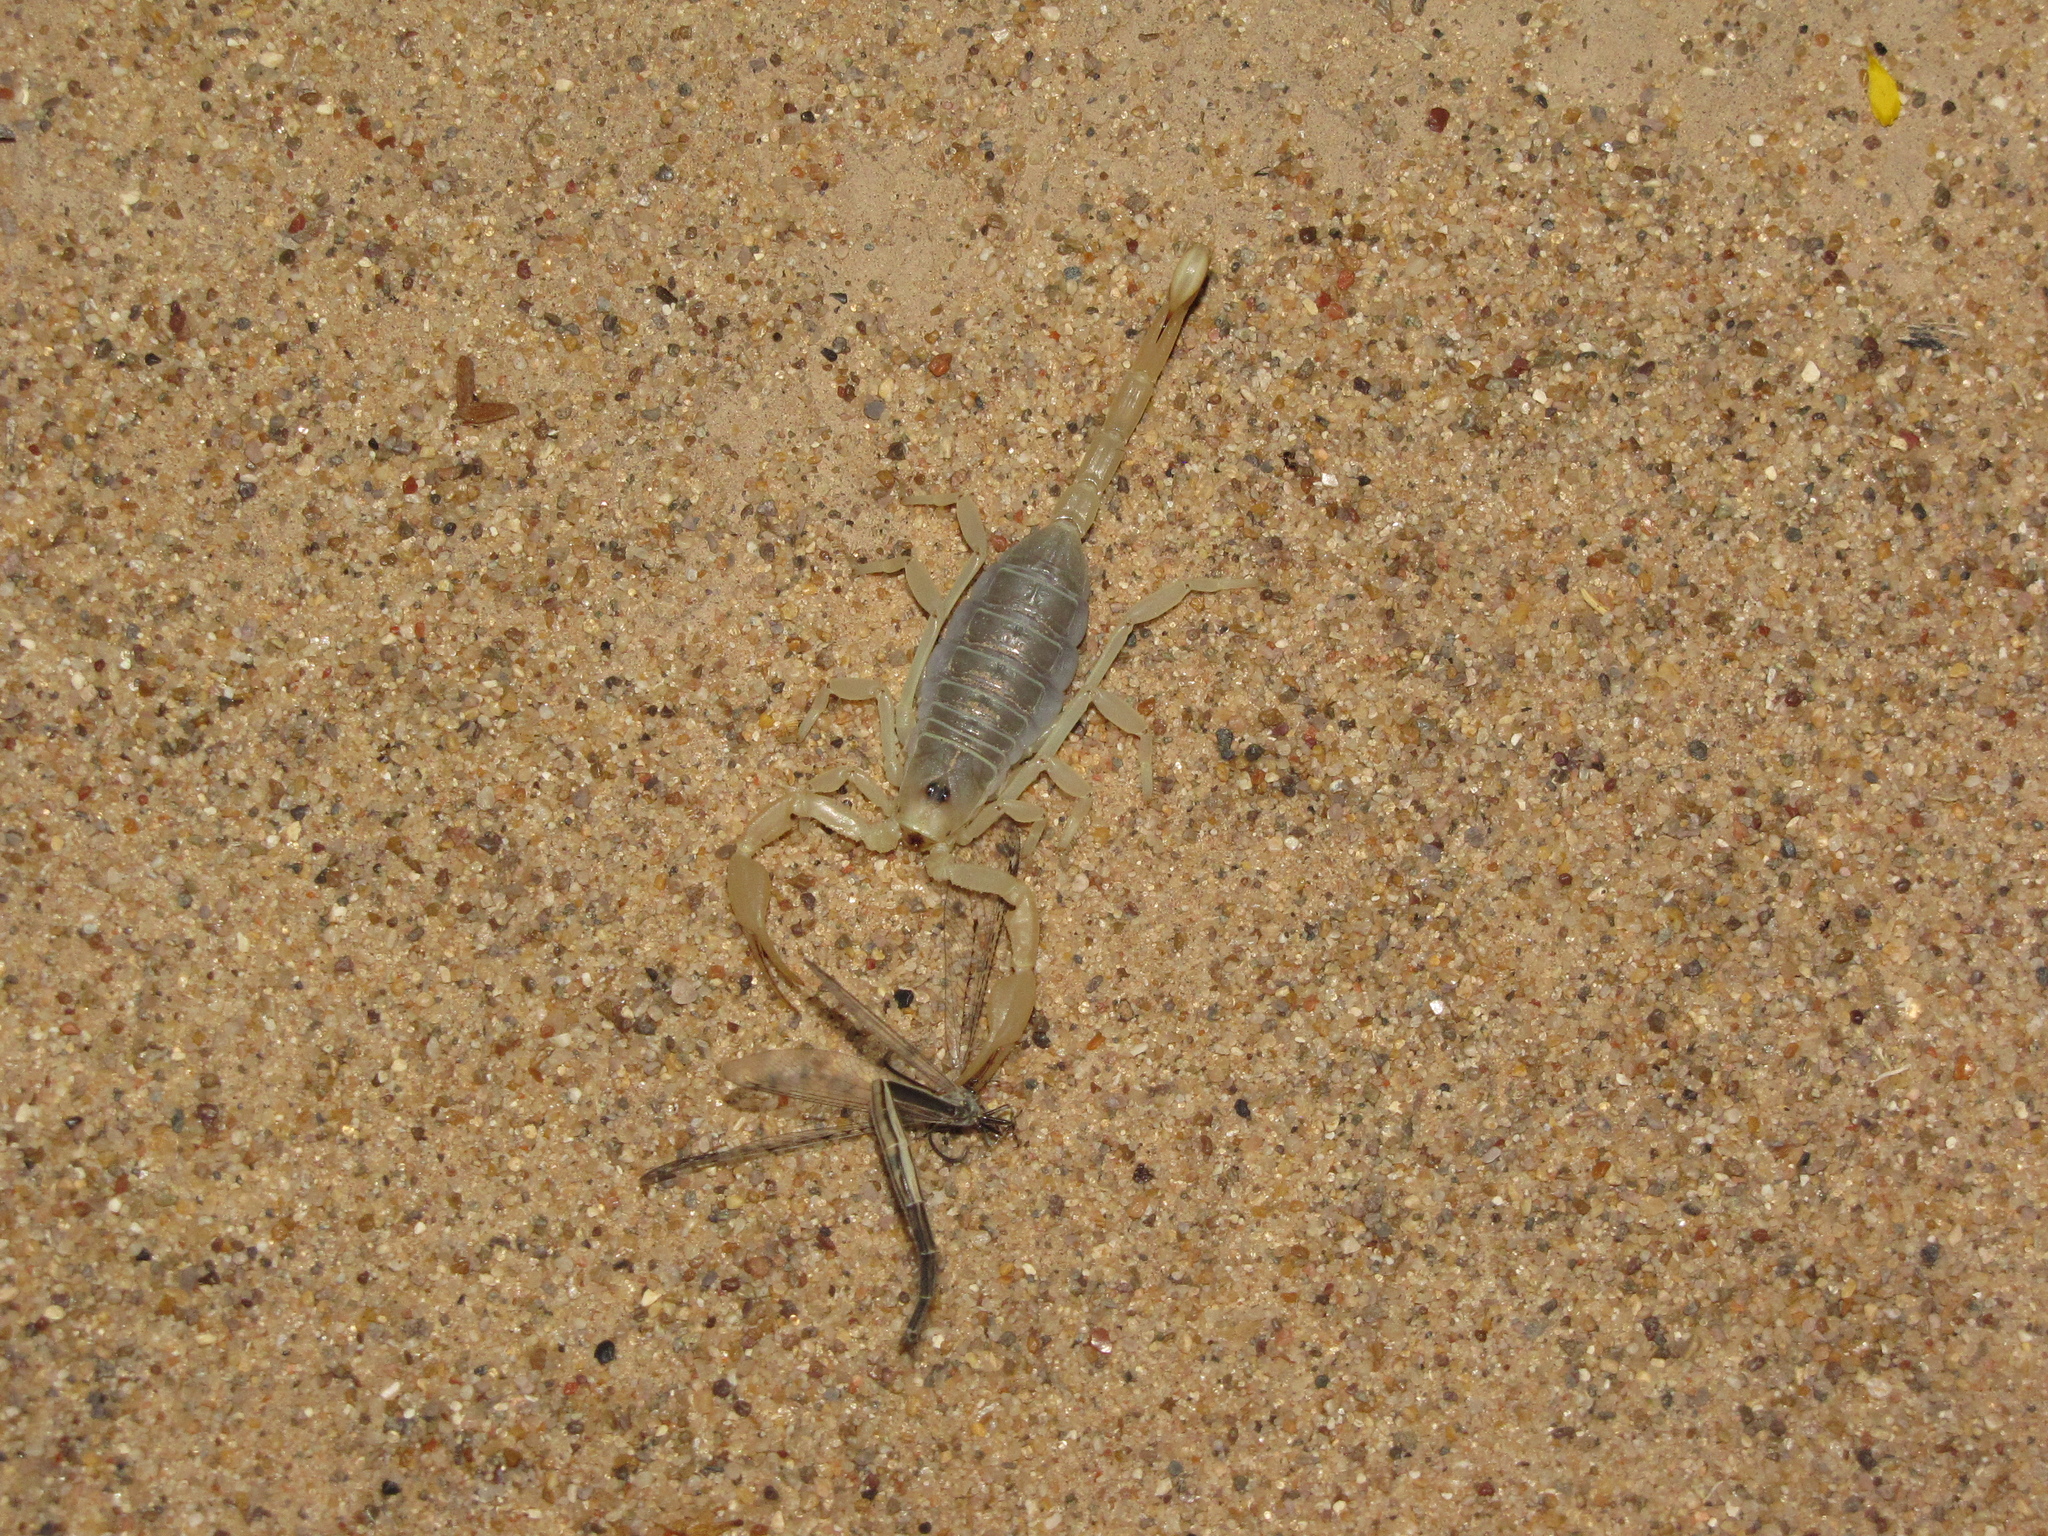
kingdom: Animalia
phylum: Arthropoda
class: Arachnida
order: Scorpiones
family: Vaejovidae
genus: Smeringurus
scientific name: Smeringurus mesaensis
